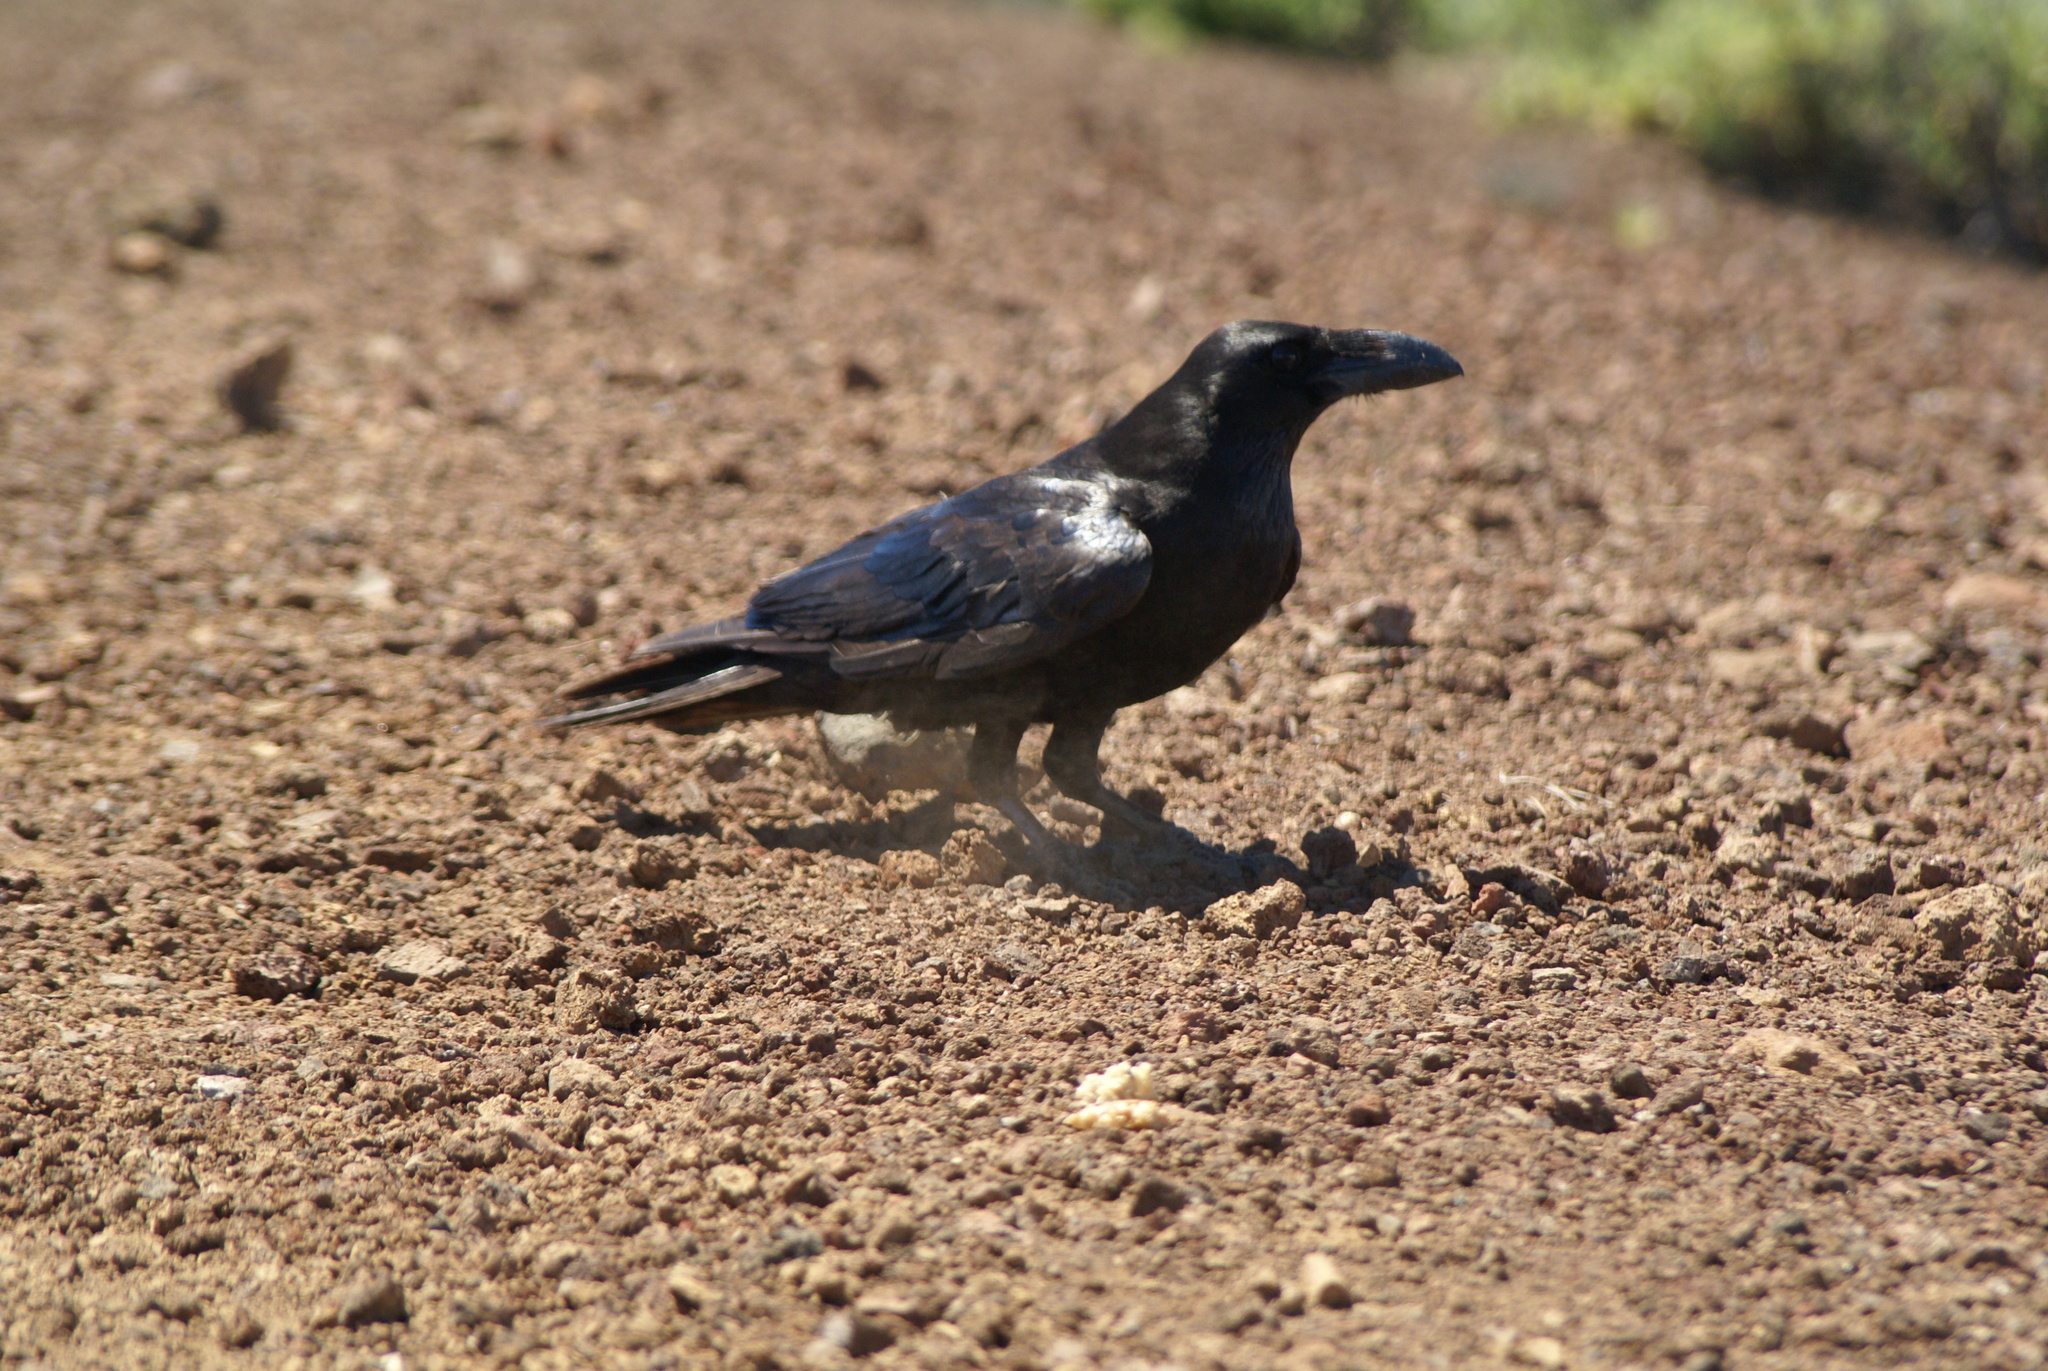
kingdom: Animalia
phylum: Chordata
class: Aves
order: Passeriformes
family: Corvidae
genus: Corvus
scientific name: Corvus corax
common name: Common raven
